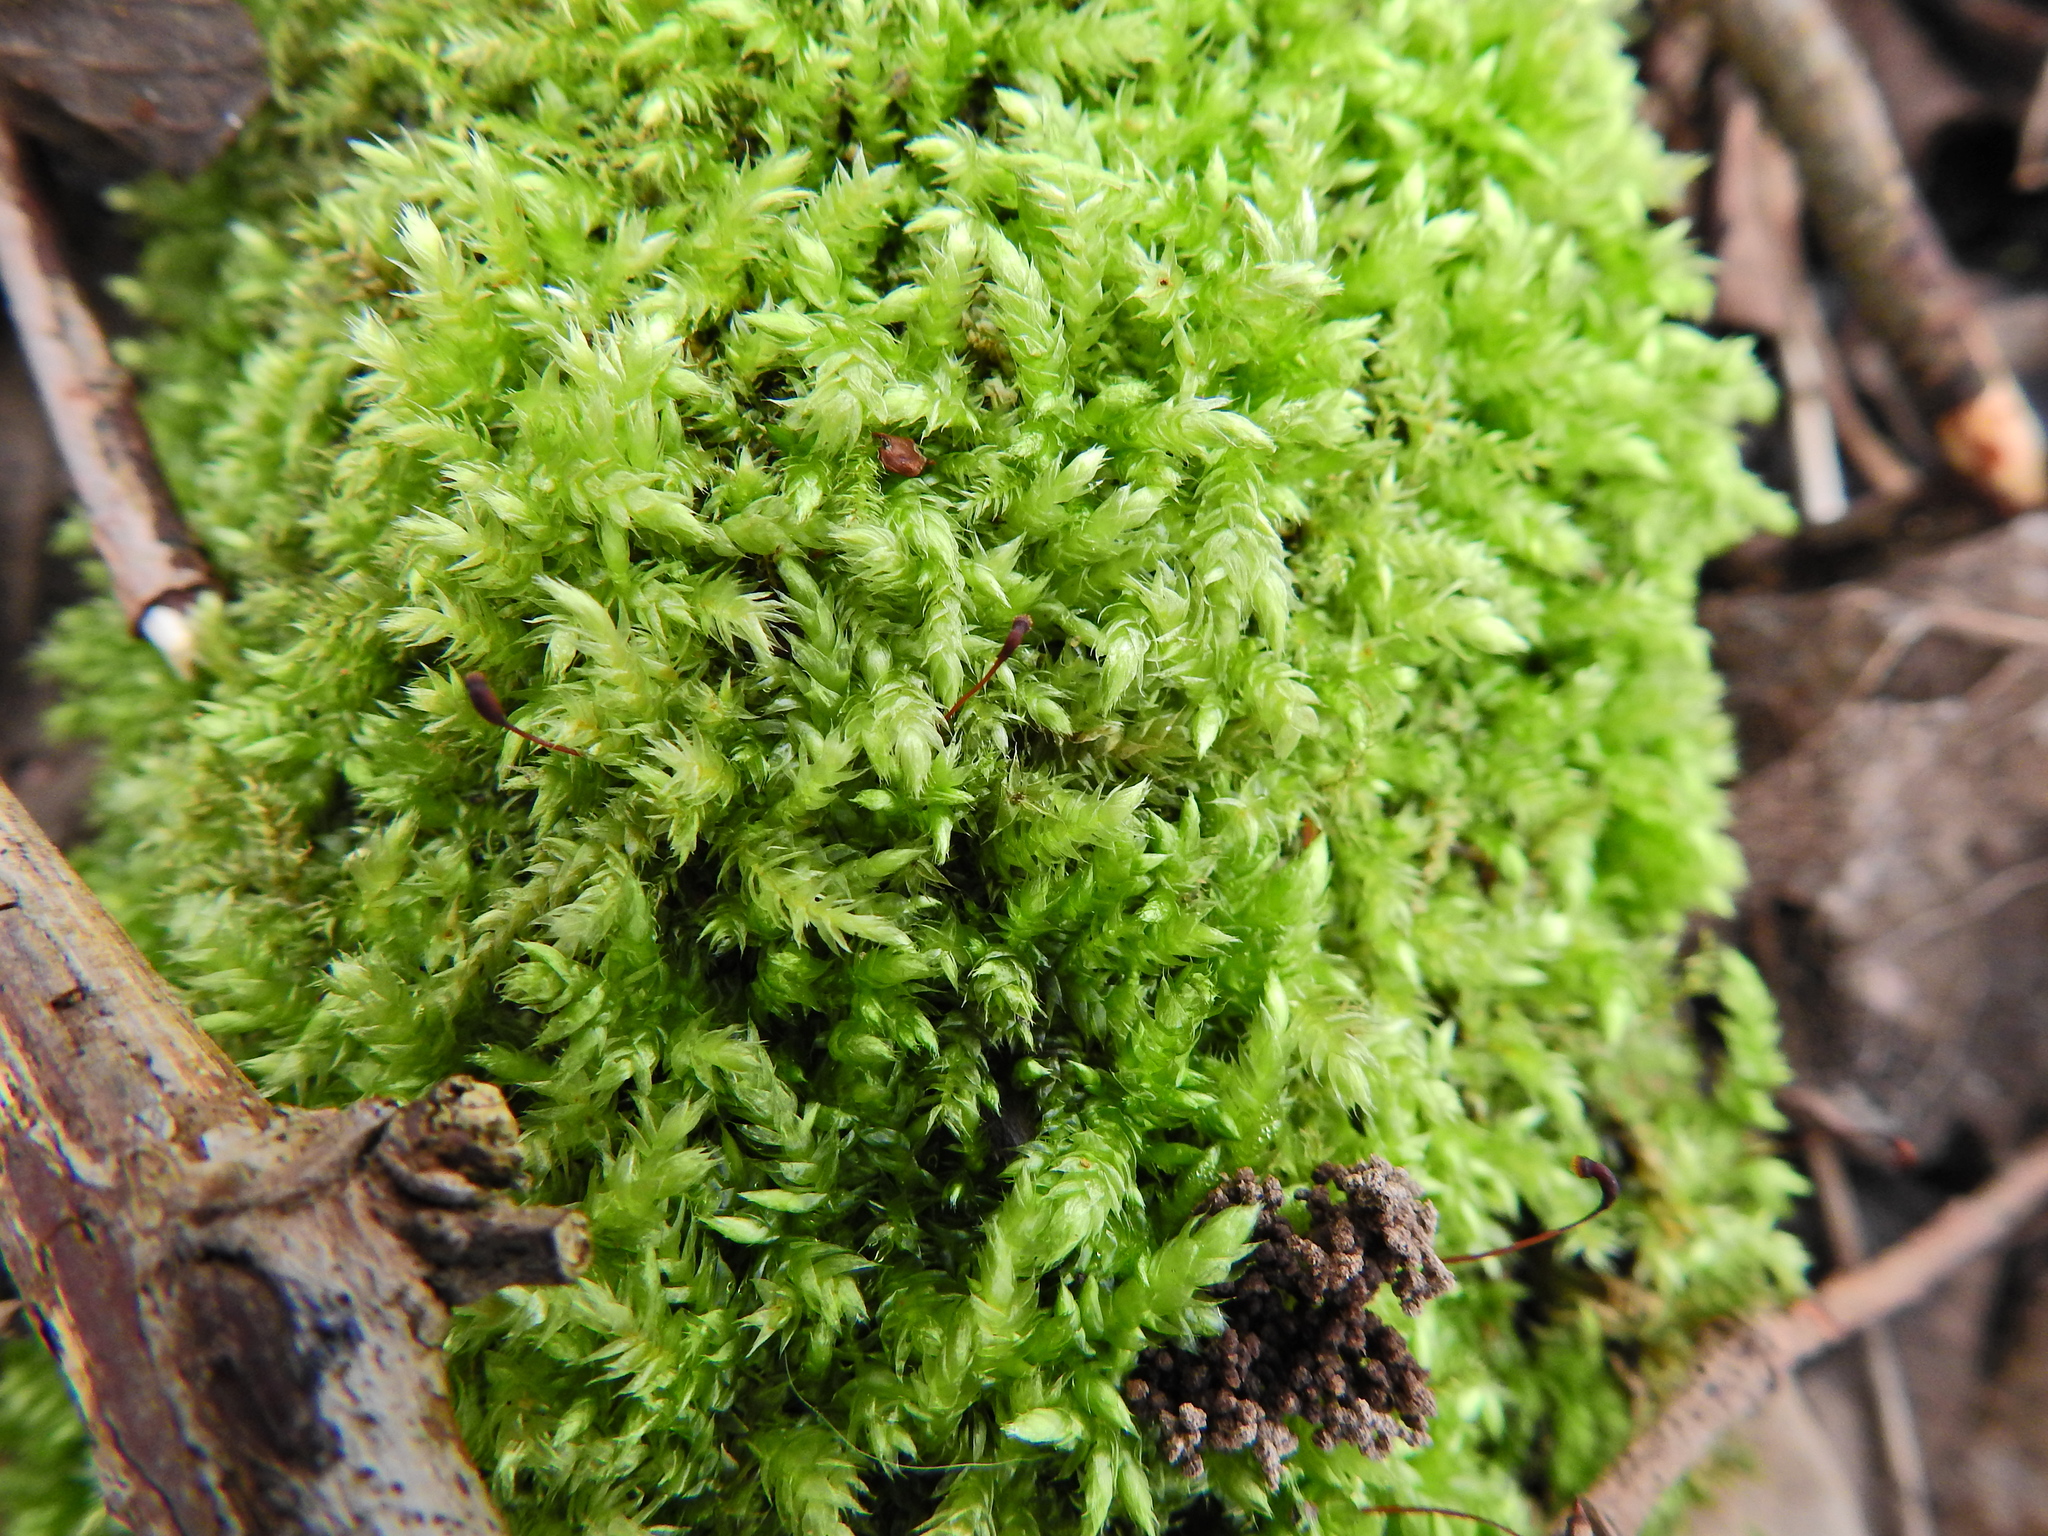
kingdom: Plantae
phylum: Bryophyta
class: Bryopsida
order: Hypnales
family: Brachytheciaceae
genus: Brachythecium
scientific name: Brachythecium rutabulum
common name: Rough-stalked feather-moss
